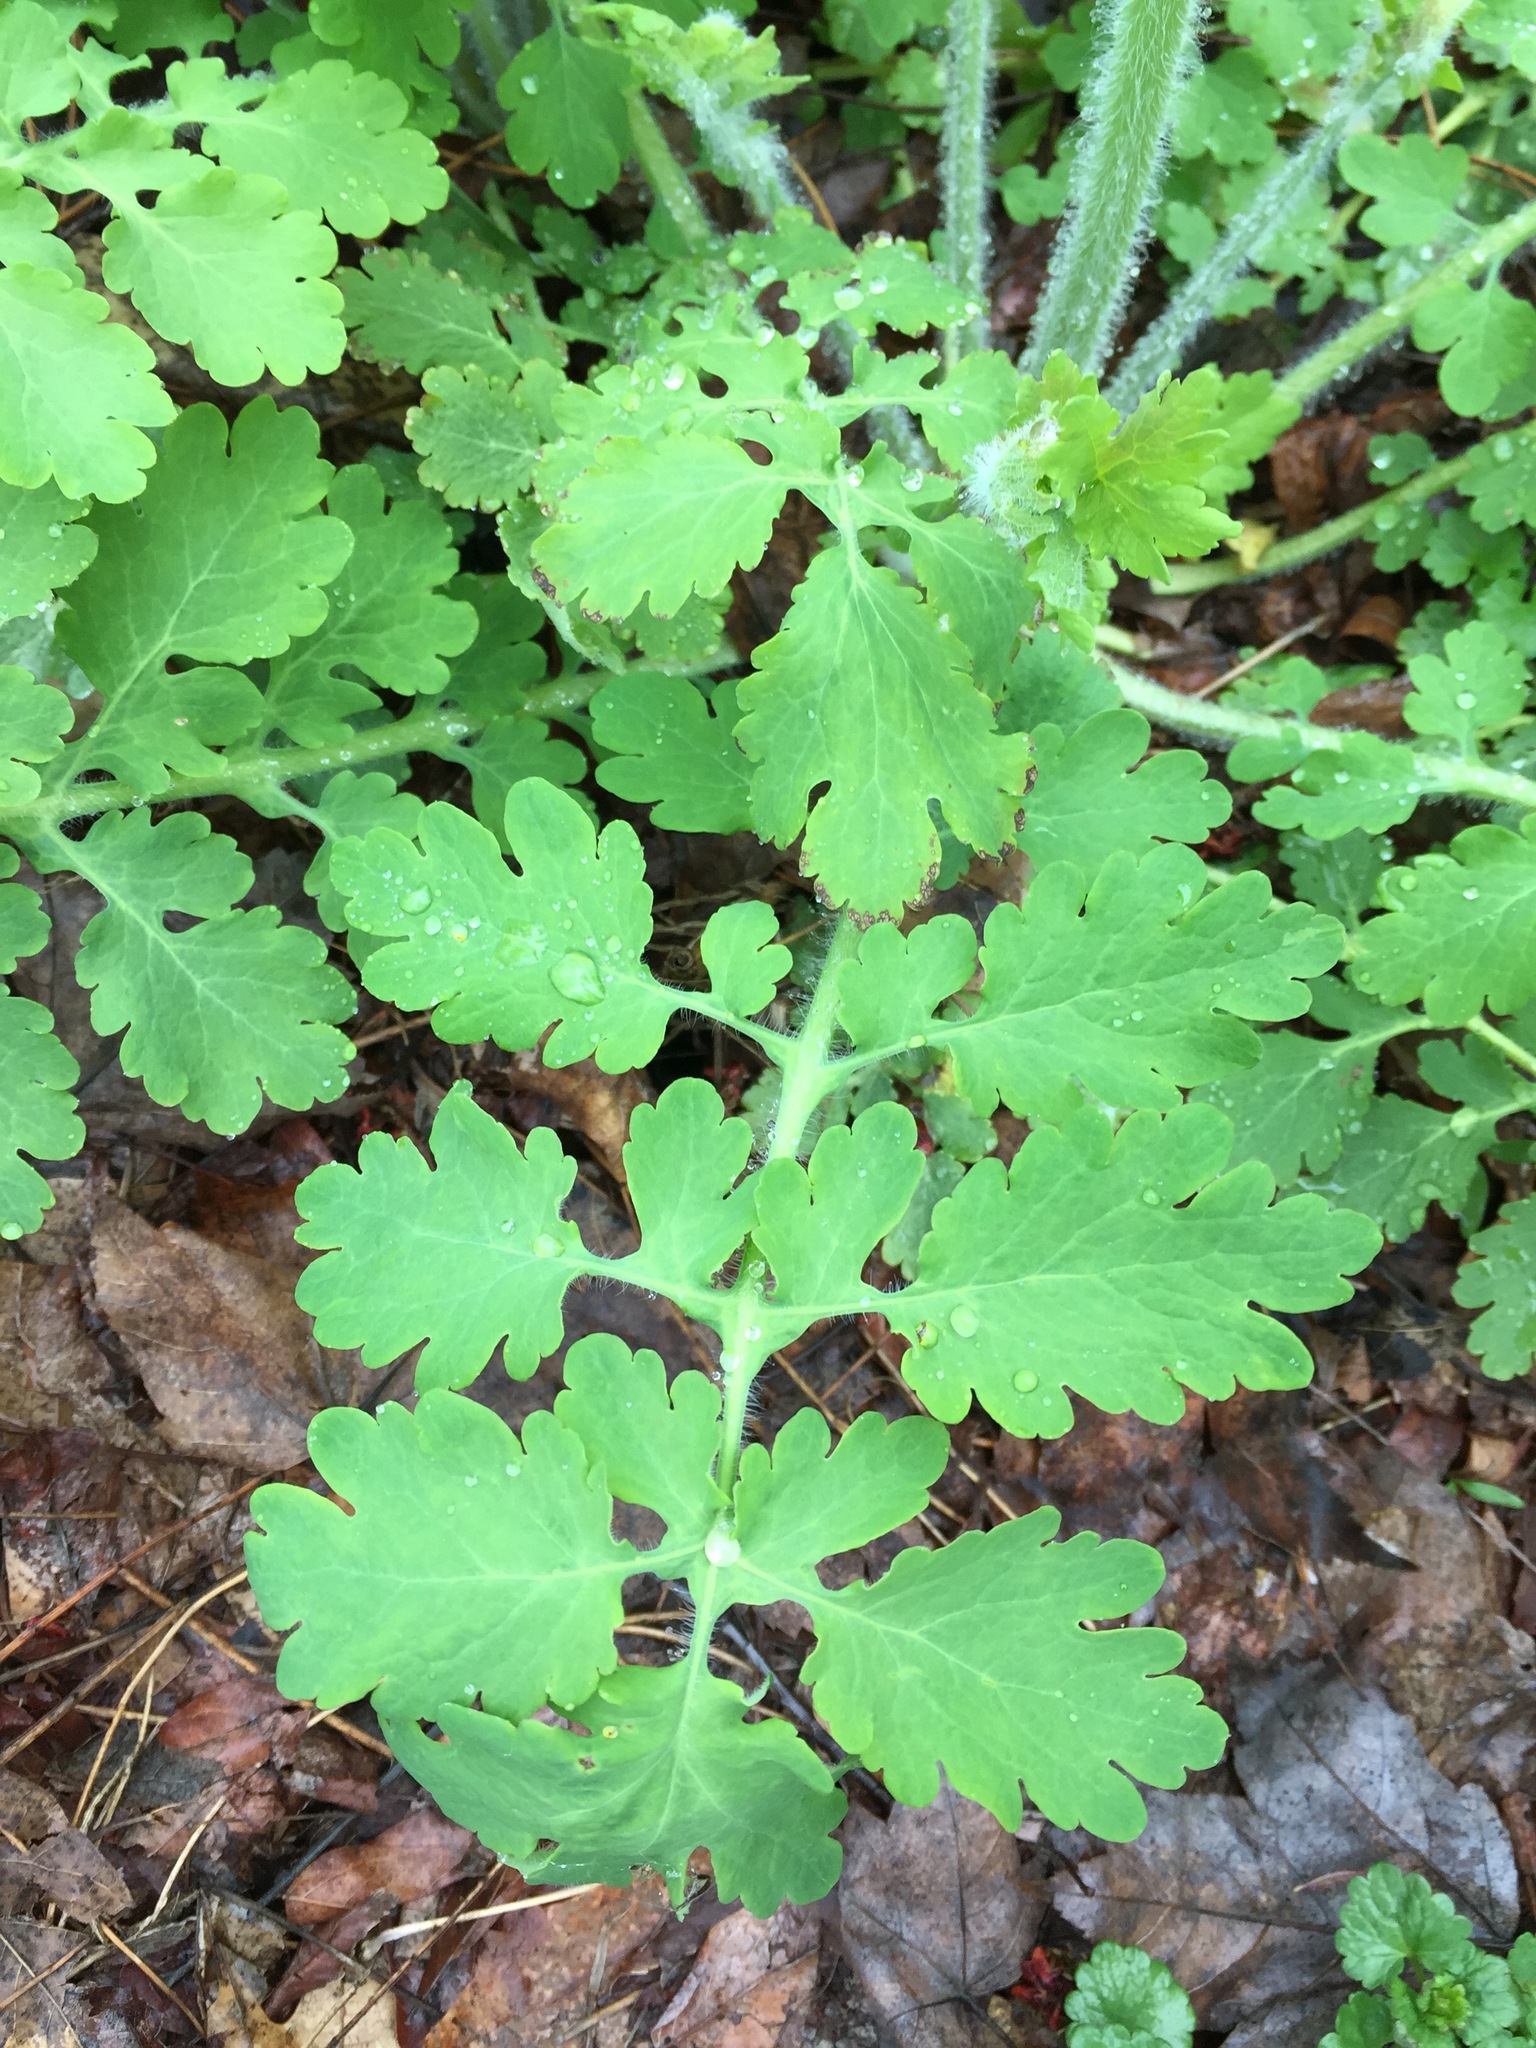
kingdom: Plantae
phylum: Tracheophyta
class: Magnoliopsida
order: Ranunculales
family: Papaveraceae
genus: Chelidonium
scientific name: Chelidonium majus
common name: Greater celandine
